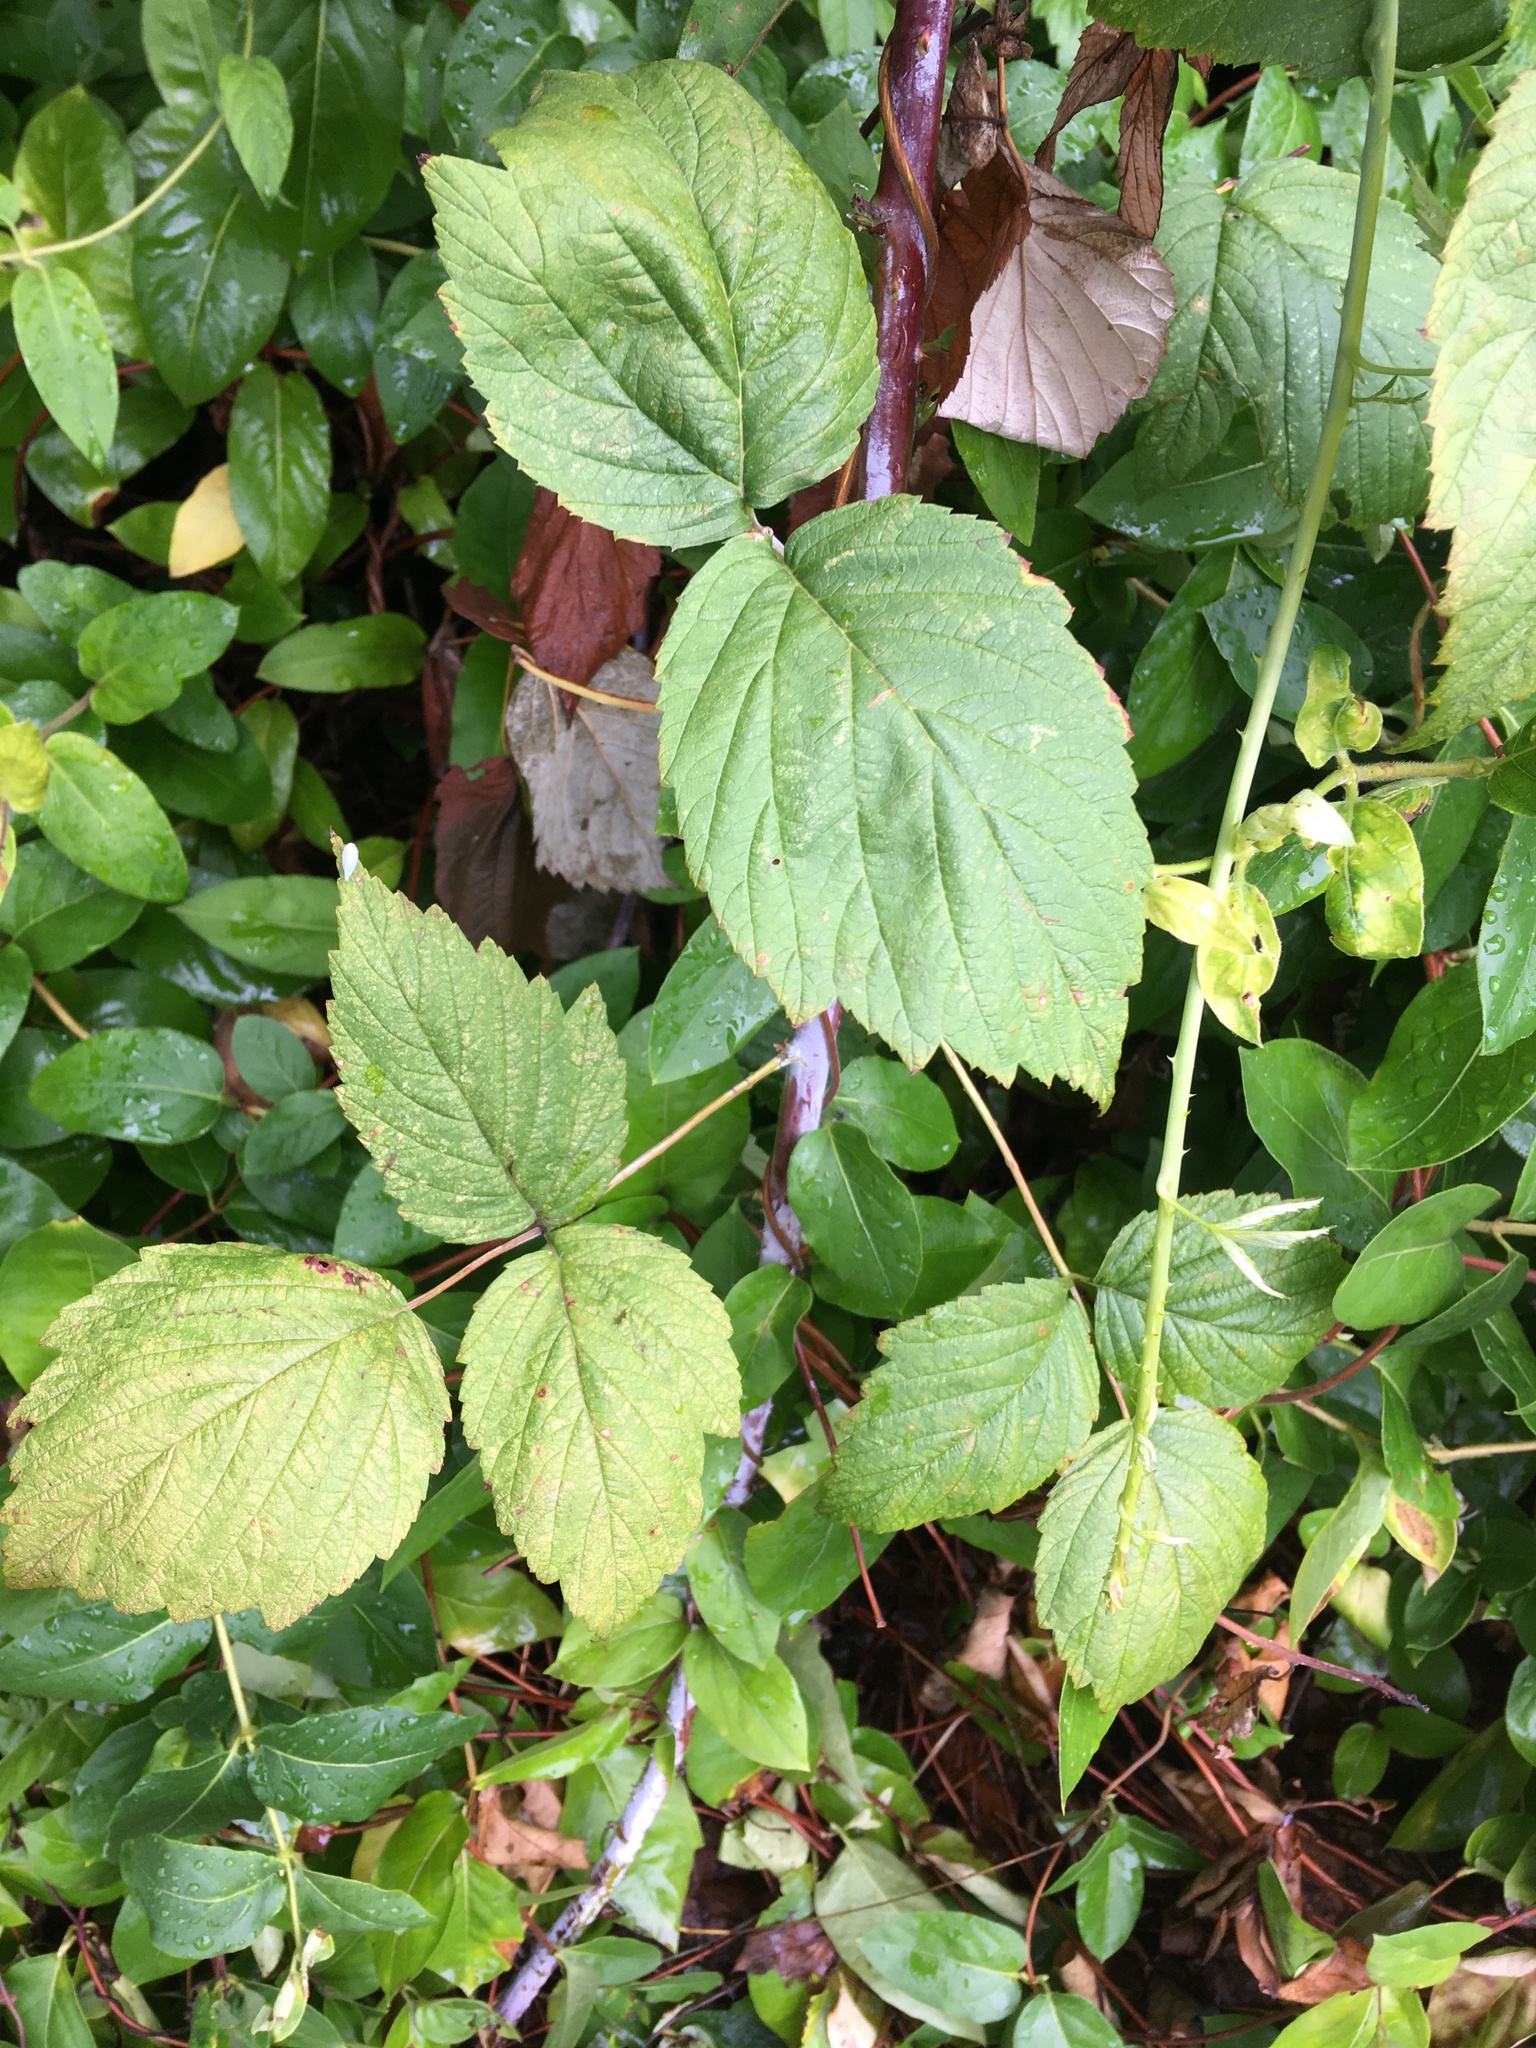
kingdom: Plantae
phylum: Tracheophyta
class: Magnoliopsida
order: Rosales
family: Rosaceae
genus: Rubus
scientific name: Rubus occidentalis
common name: Black raspberry
